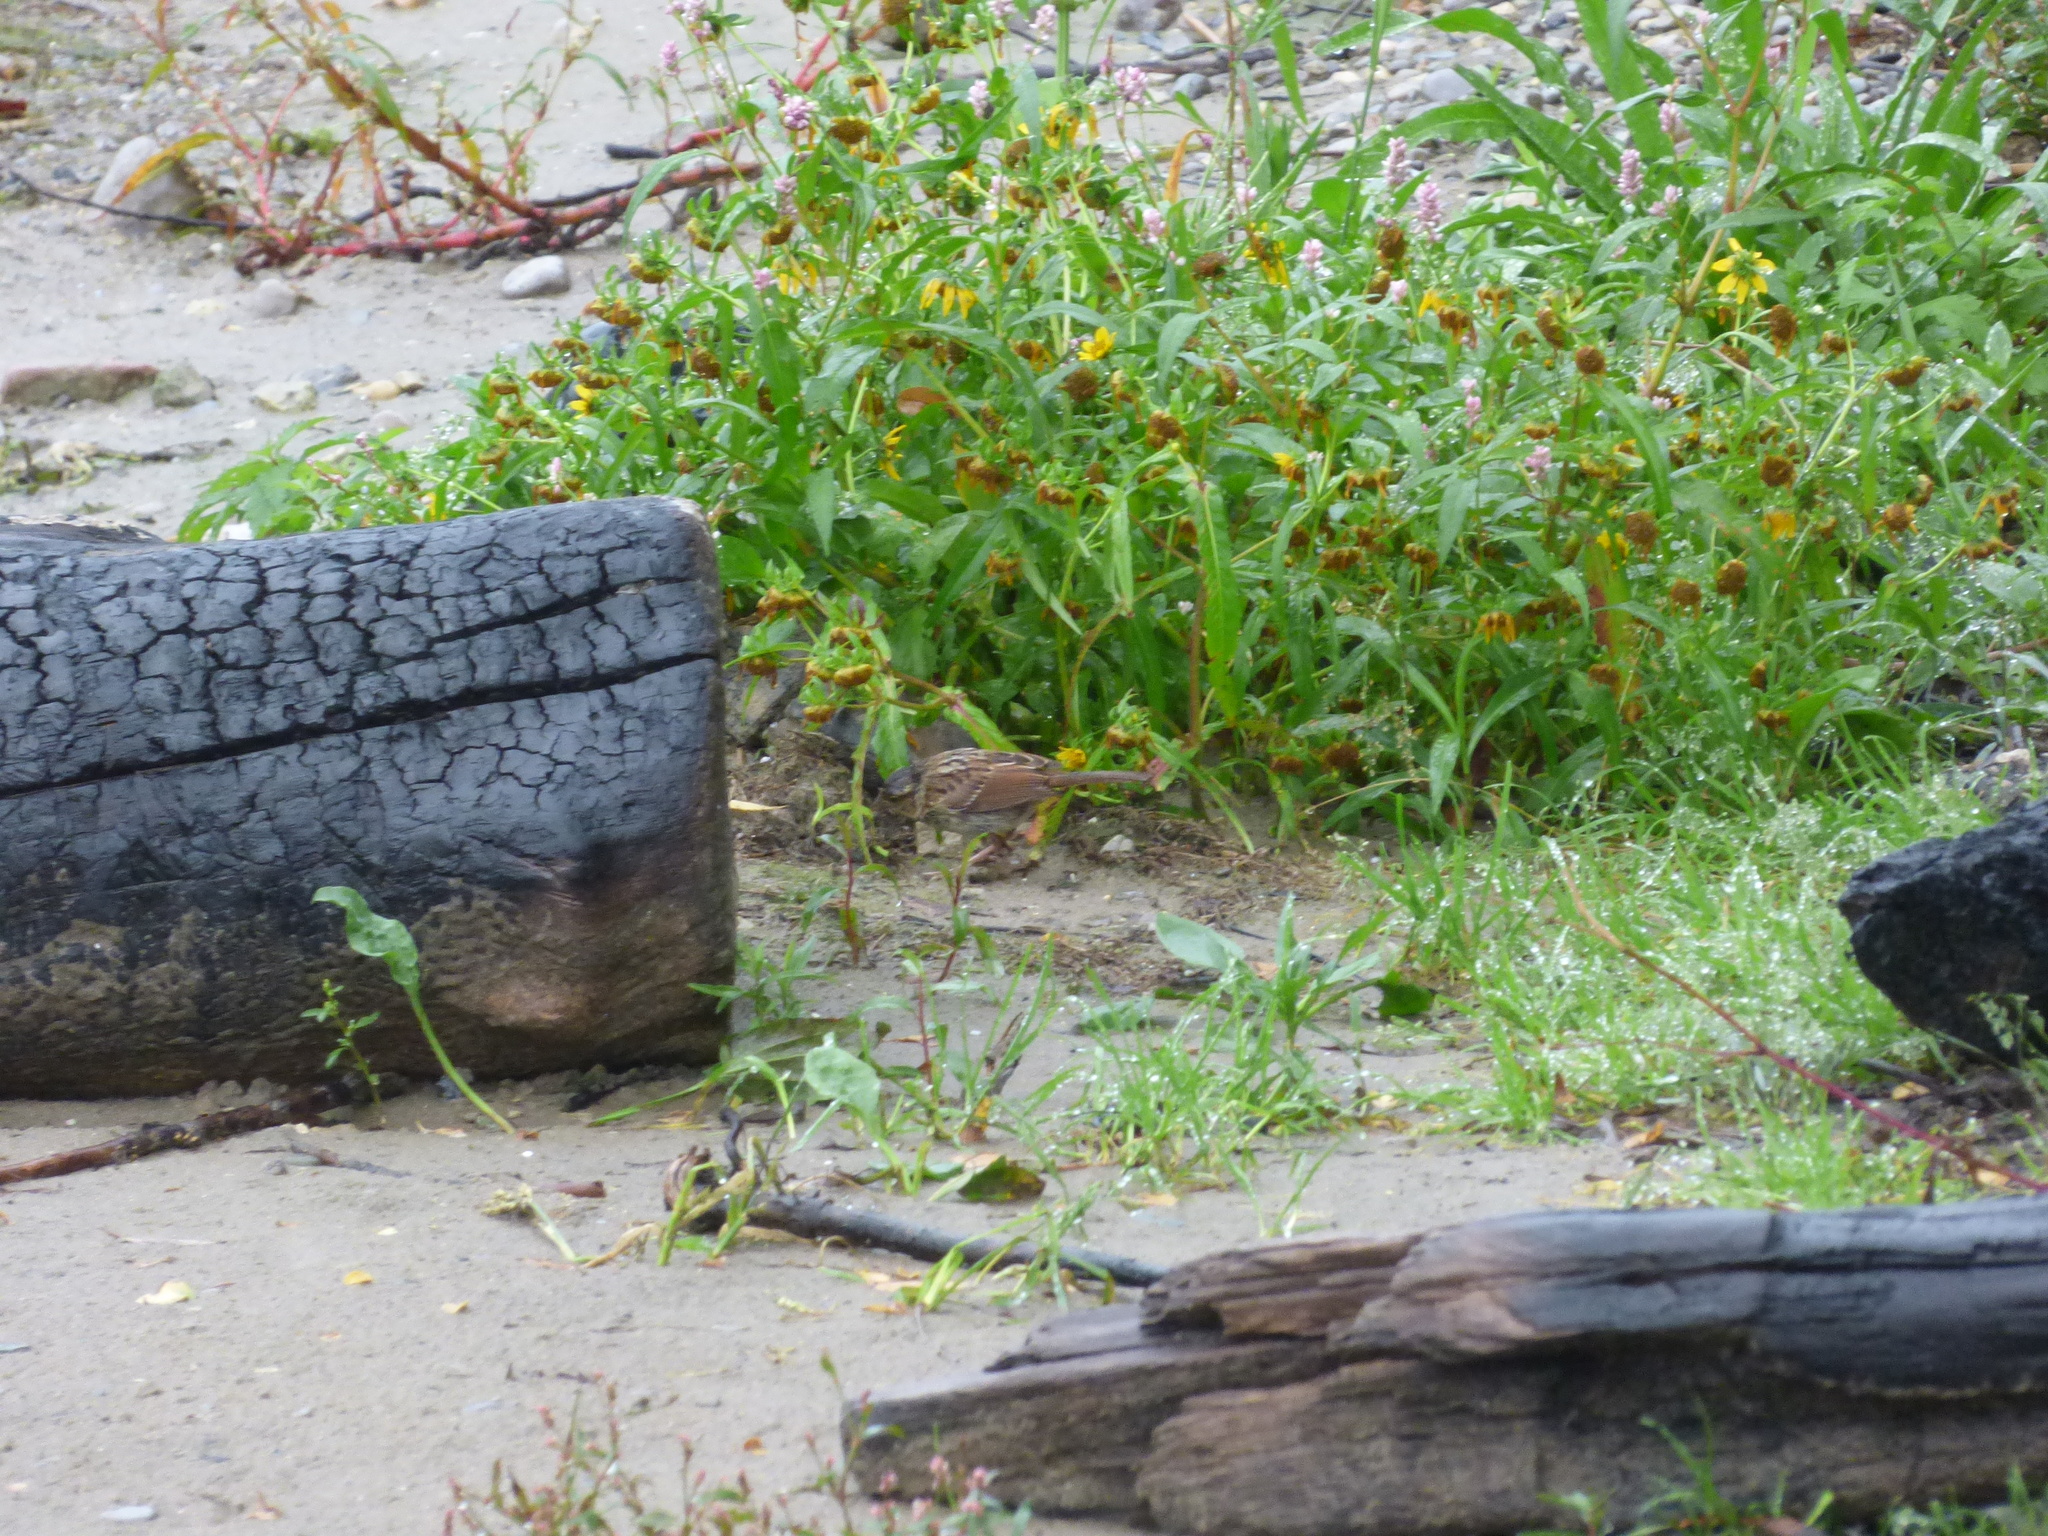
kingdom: Animalia
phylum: Chordata
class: Aves
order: Passeriformes
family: Passerellidae
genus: Zonotrichia
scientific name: Zonotrichia albicollis
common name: White-throated sparrow
